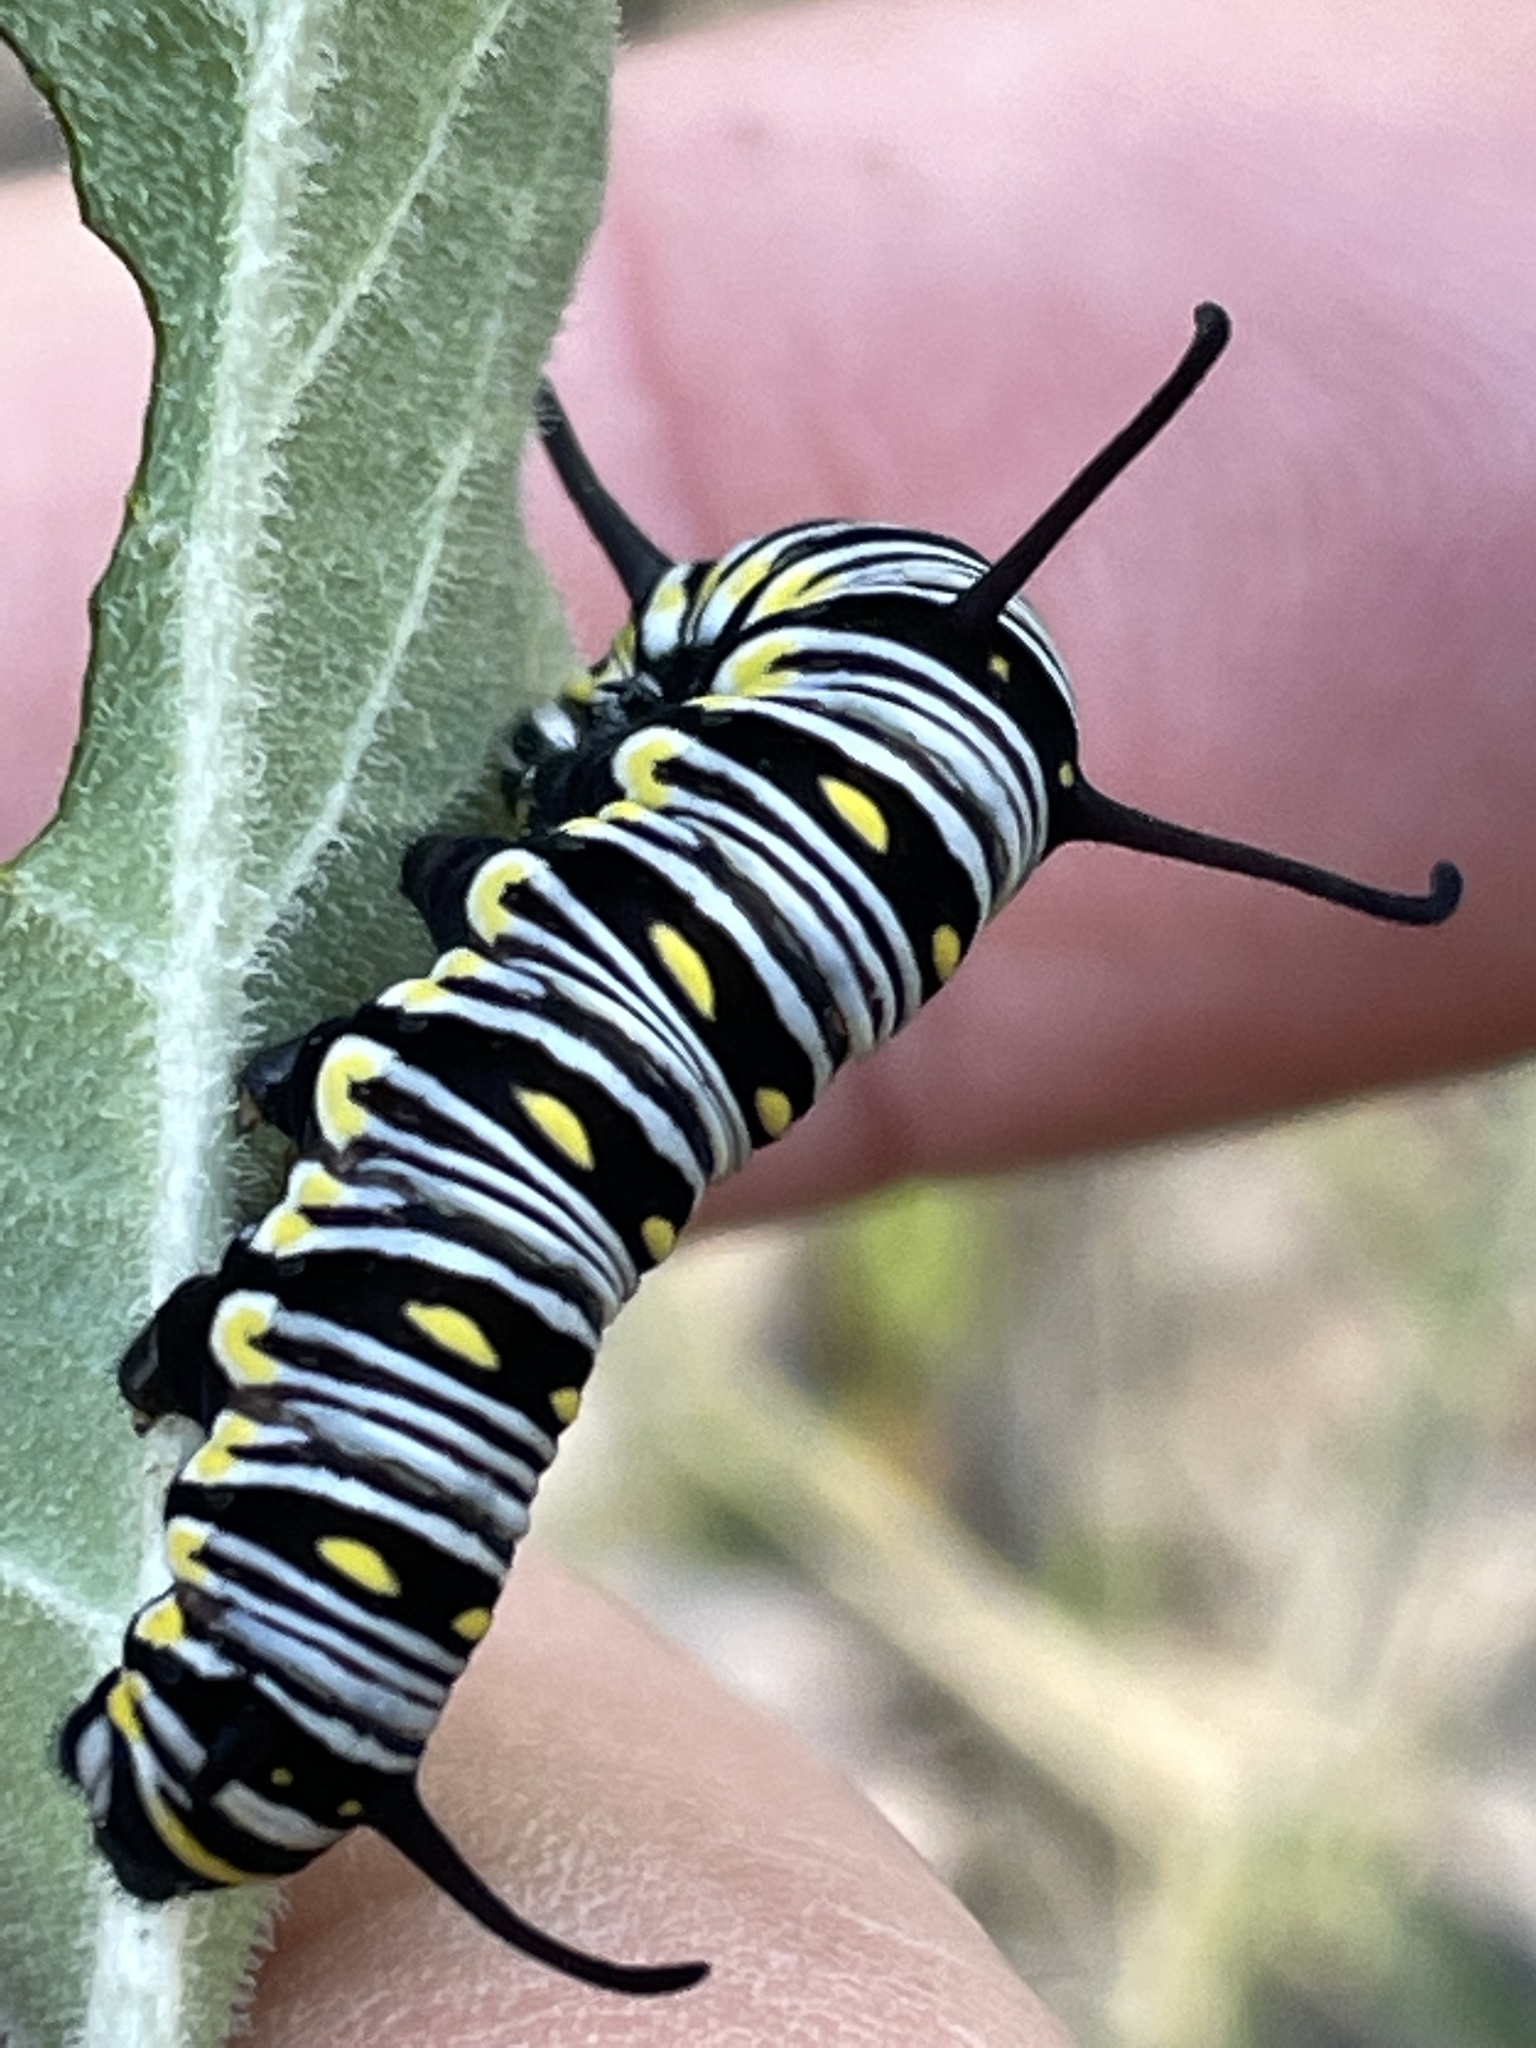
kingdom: Animalia
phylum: Arthropoda
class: Insecta
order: Lepidoptera
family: Nymphalidae
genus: Danaus
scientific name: Danaus gilippus
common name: Queen
